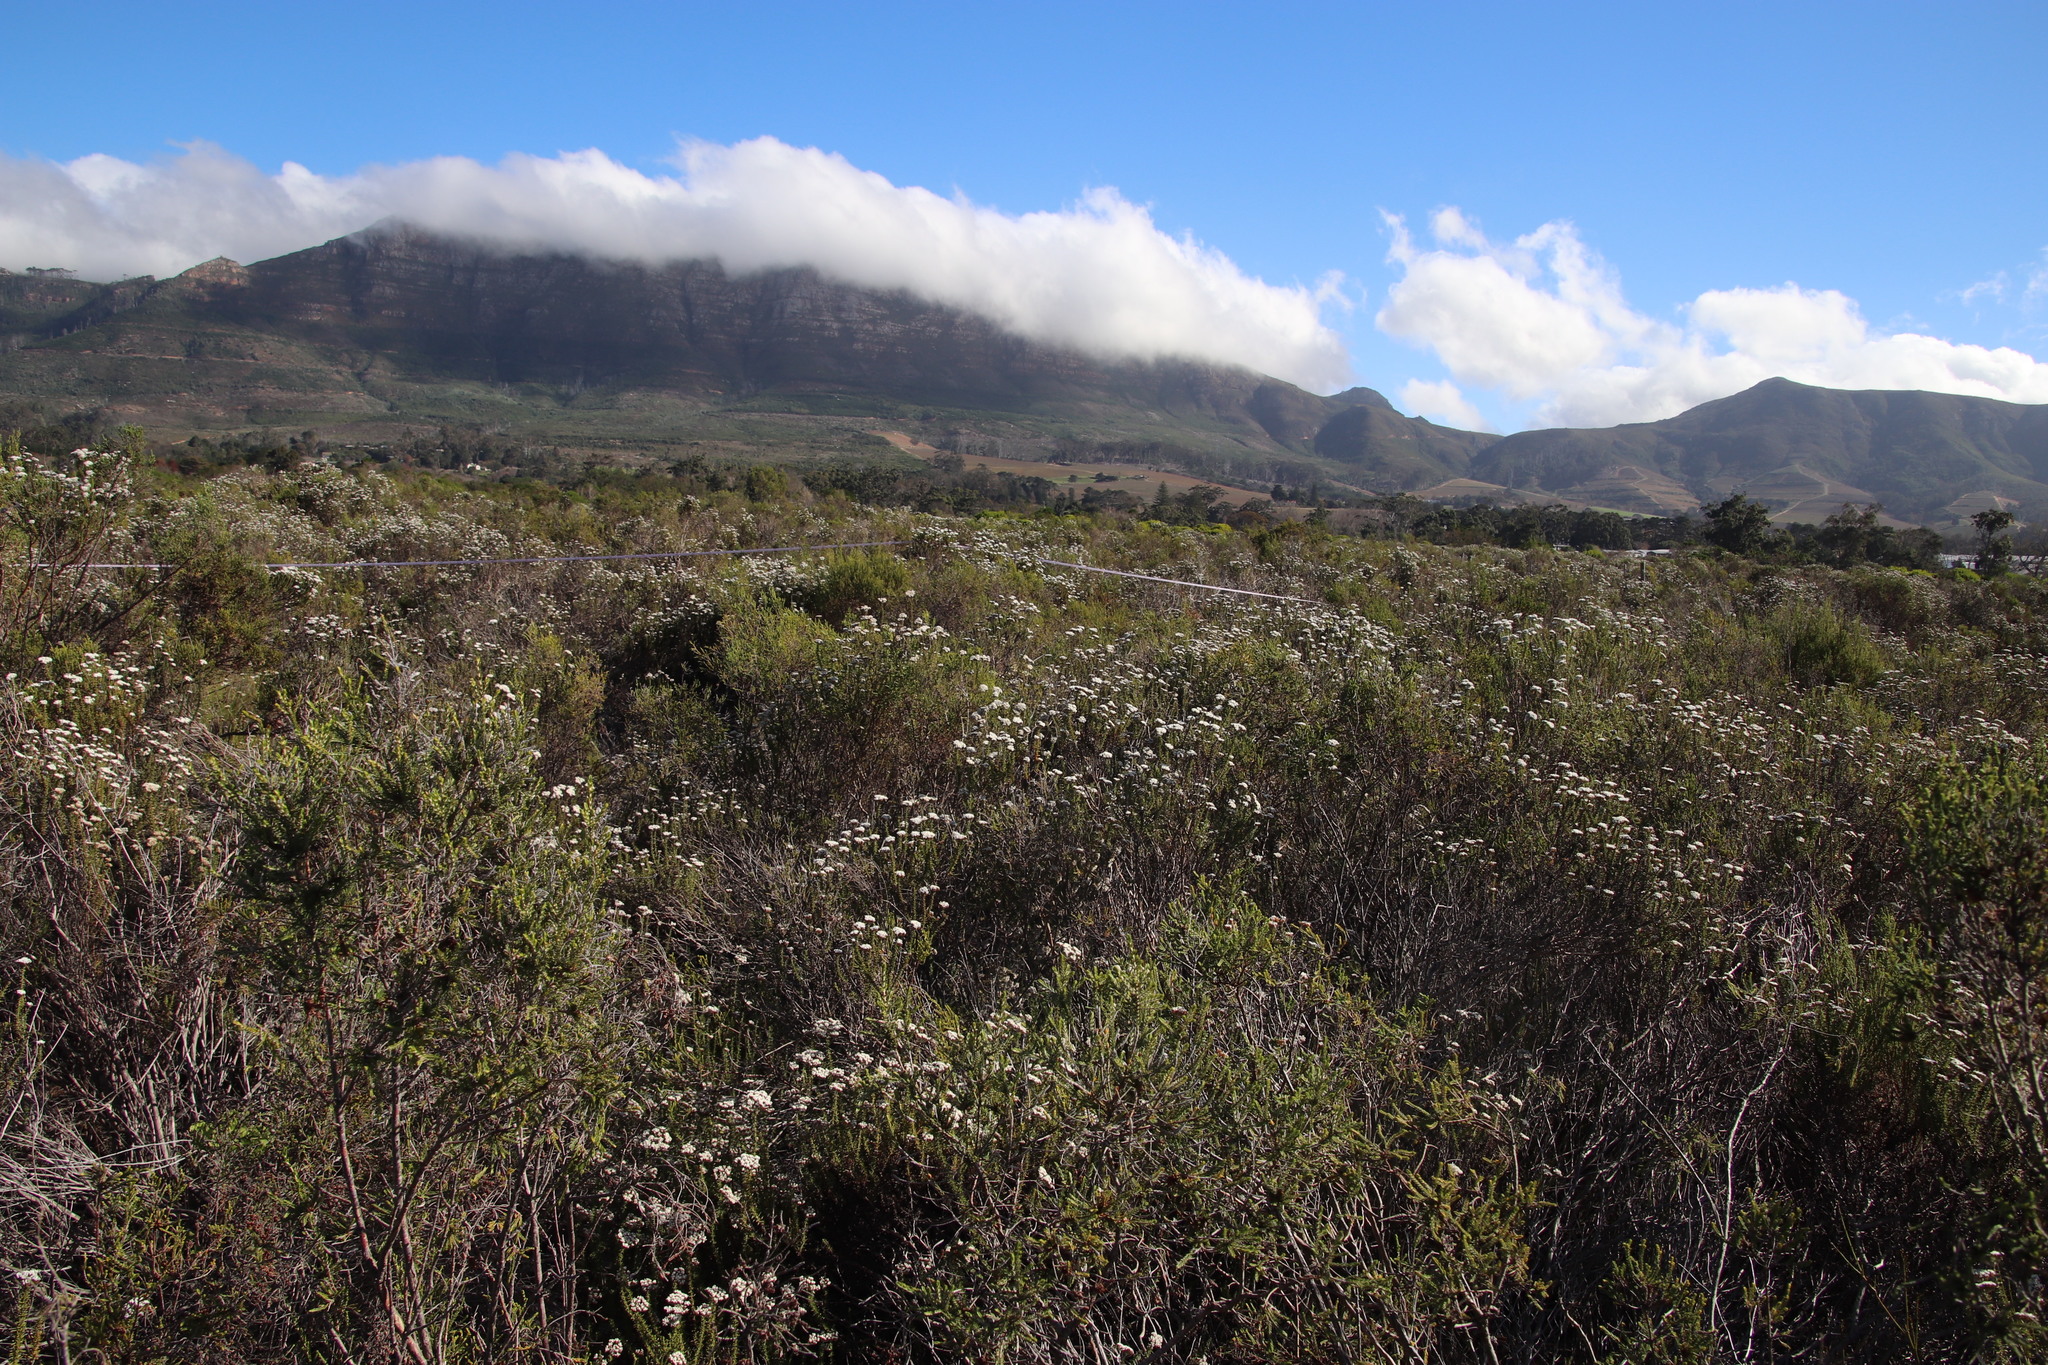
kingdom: Plantae
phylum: Tracheophyta
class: Magnoliopsida
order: Malvales
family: Thymelaeaceae
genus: Passerina
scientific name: Passerina corymbosa
